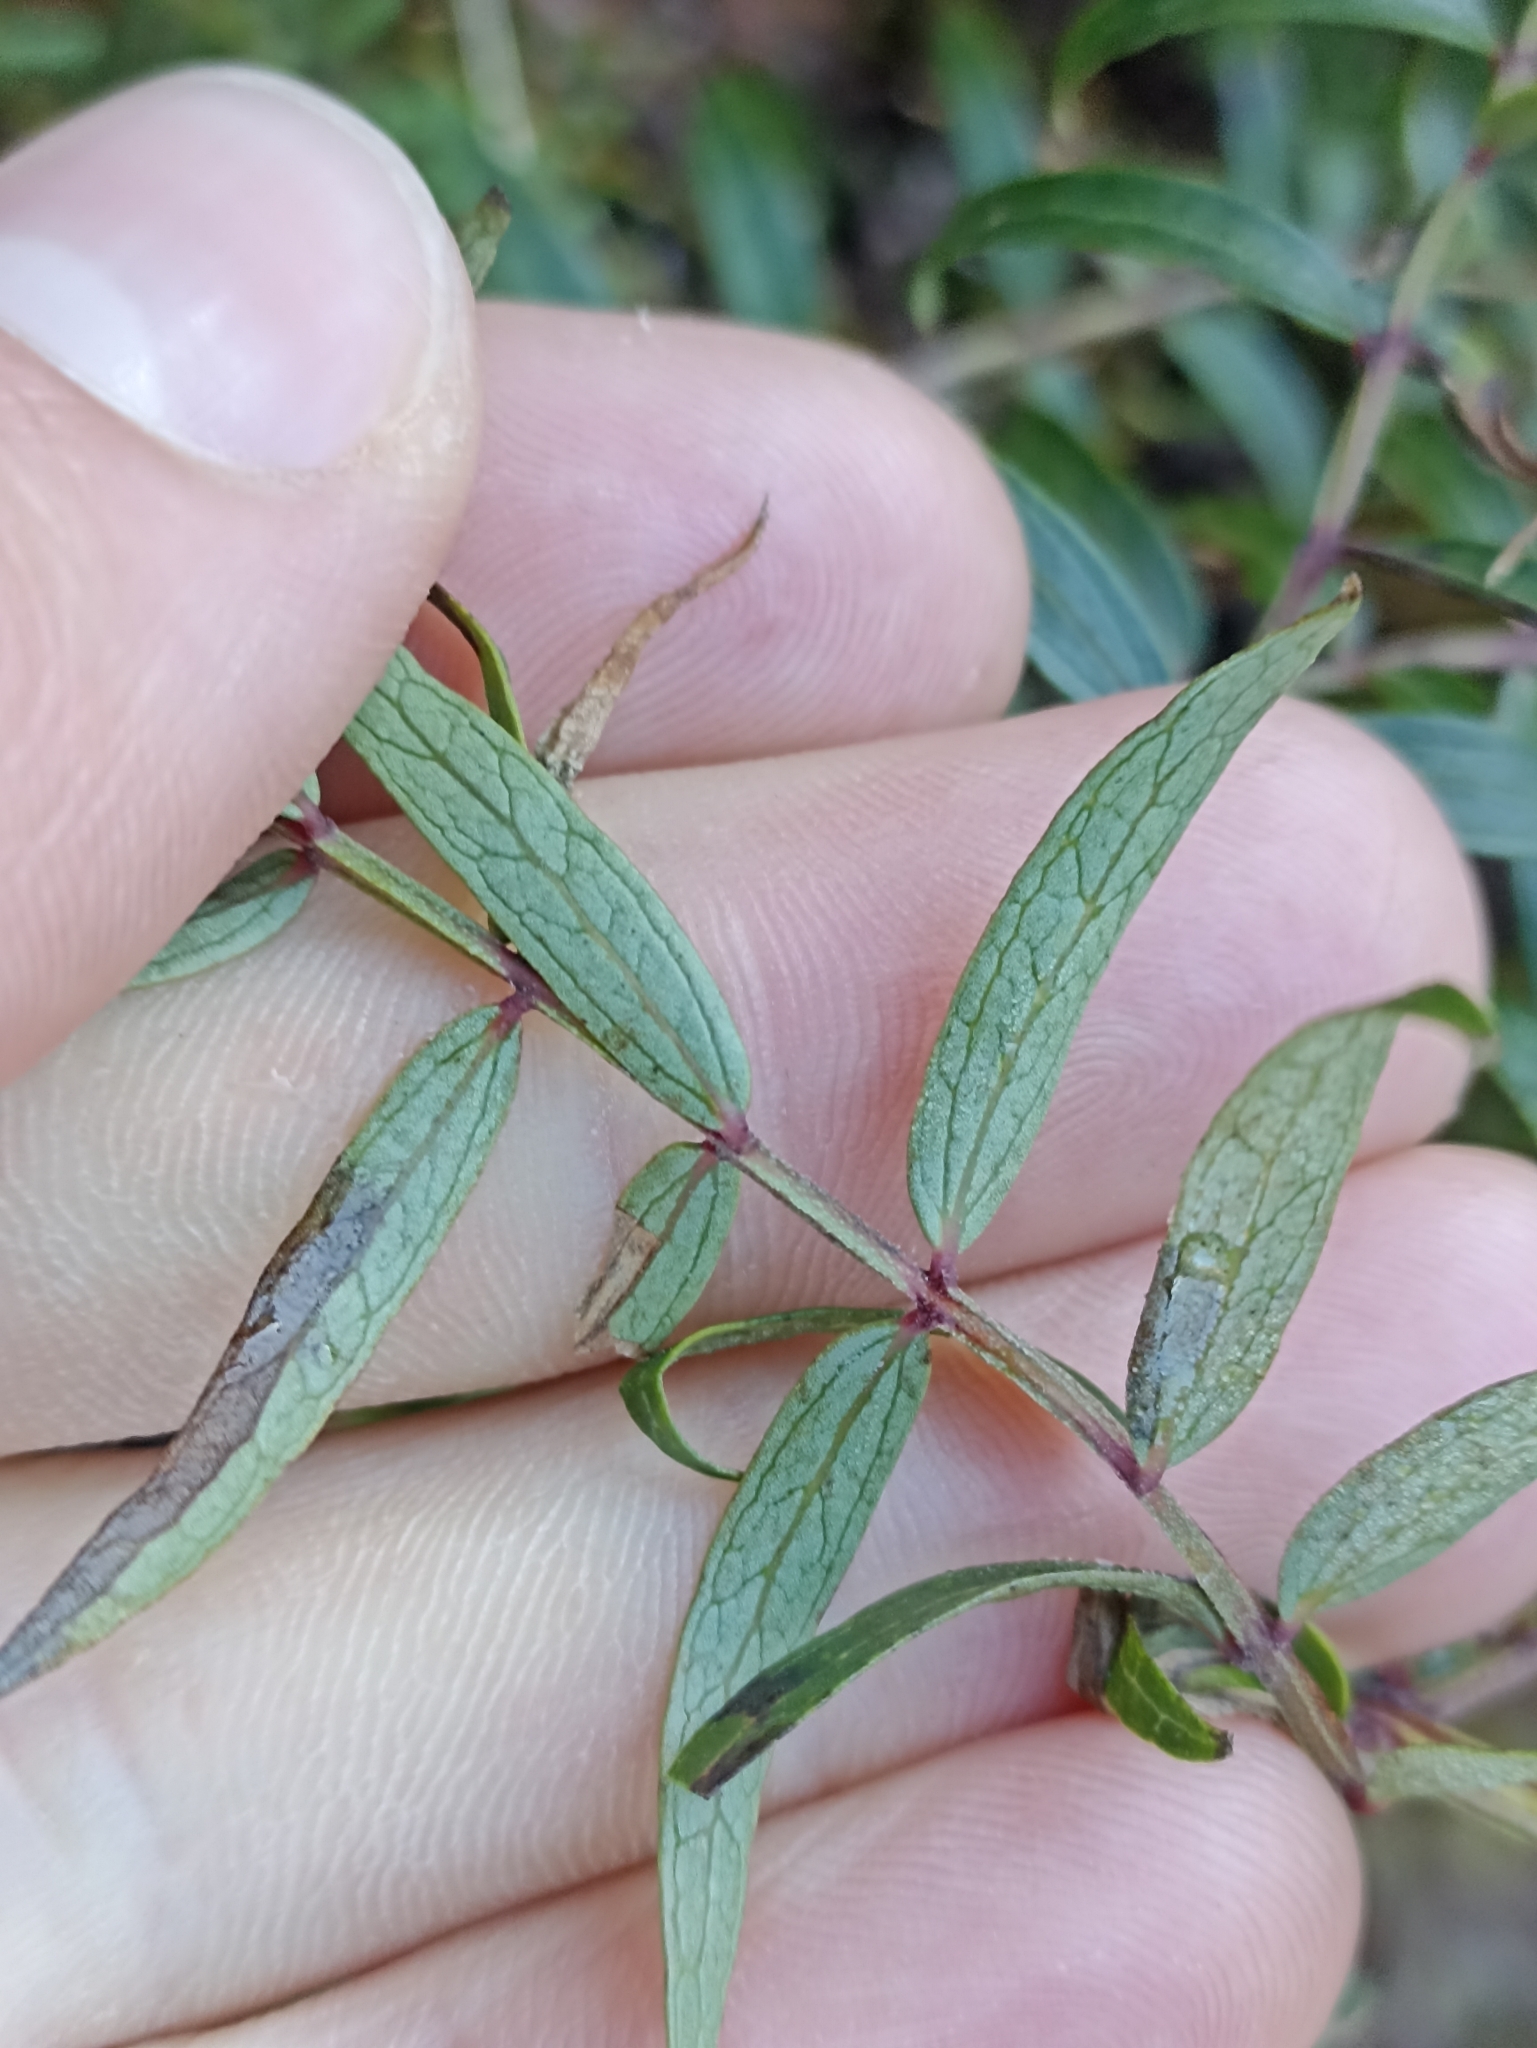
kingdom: Plantae
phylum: Tracheophyta
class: Magnoliopsida
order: Cucurbitales
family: Coriariaceae
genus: Coriaria
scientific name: Coriaria plumosa
